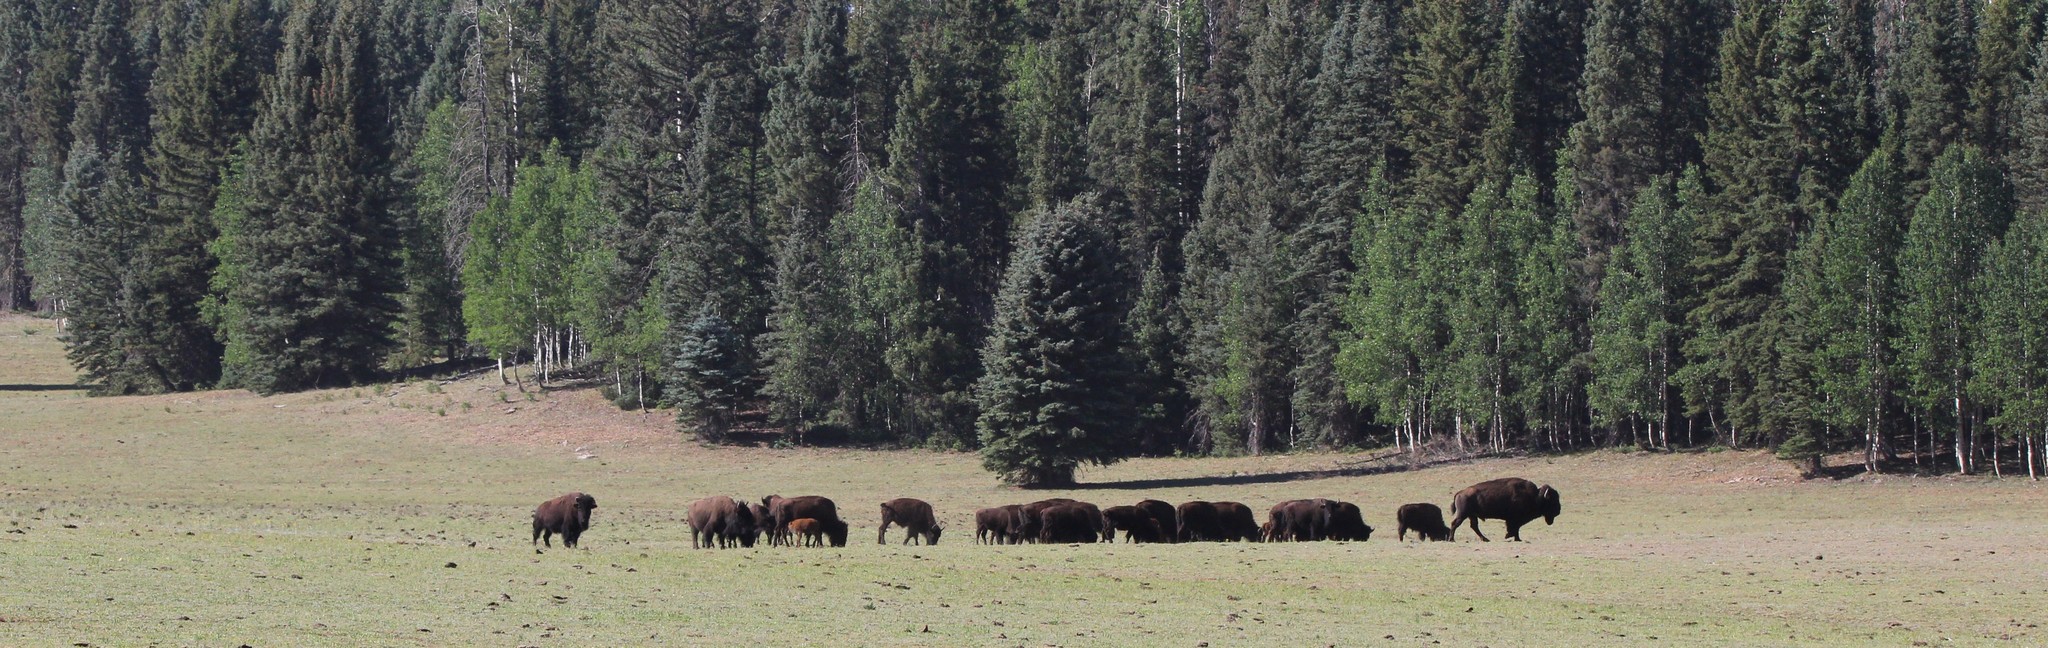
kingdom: Animalia
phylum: Chordata
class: Mammalia
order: Artiodactyla
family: Bovidae
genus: Bison
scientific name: Bison bison
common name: American bison
